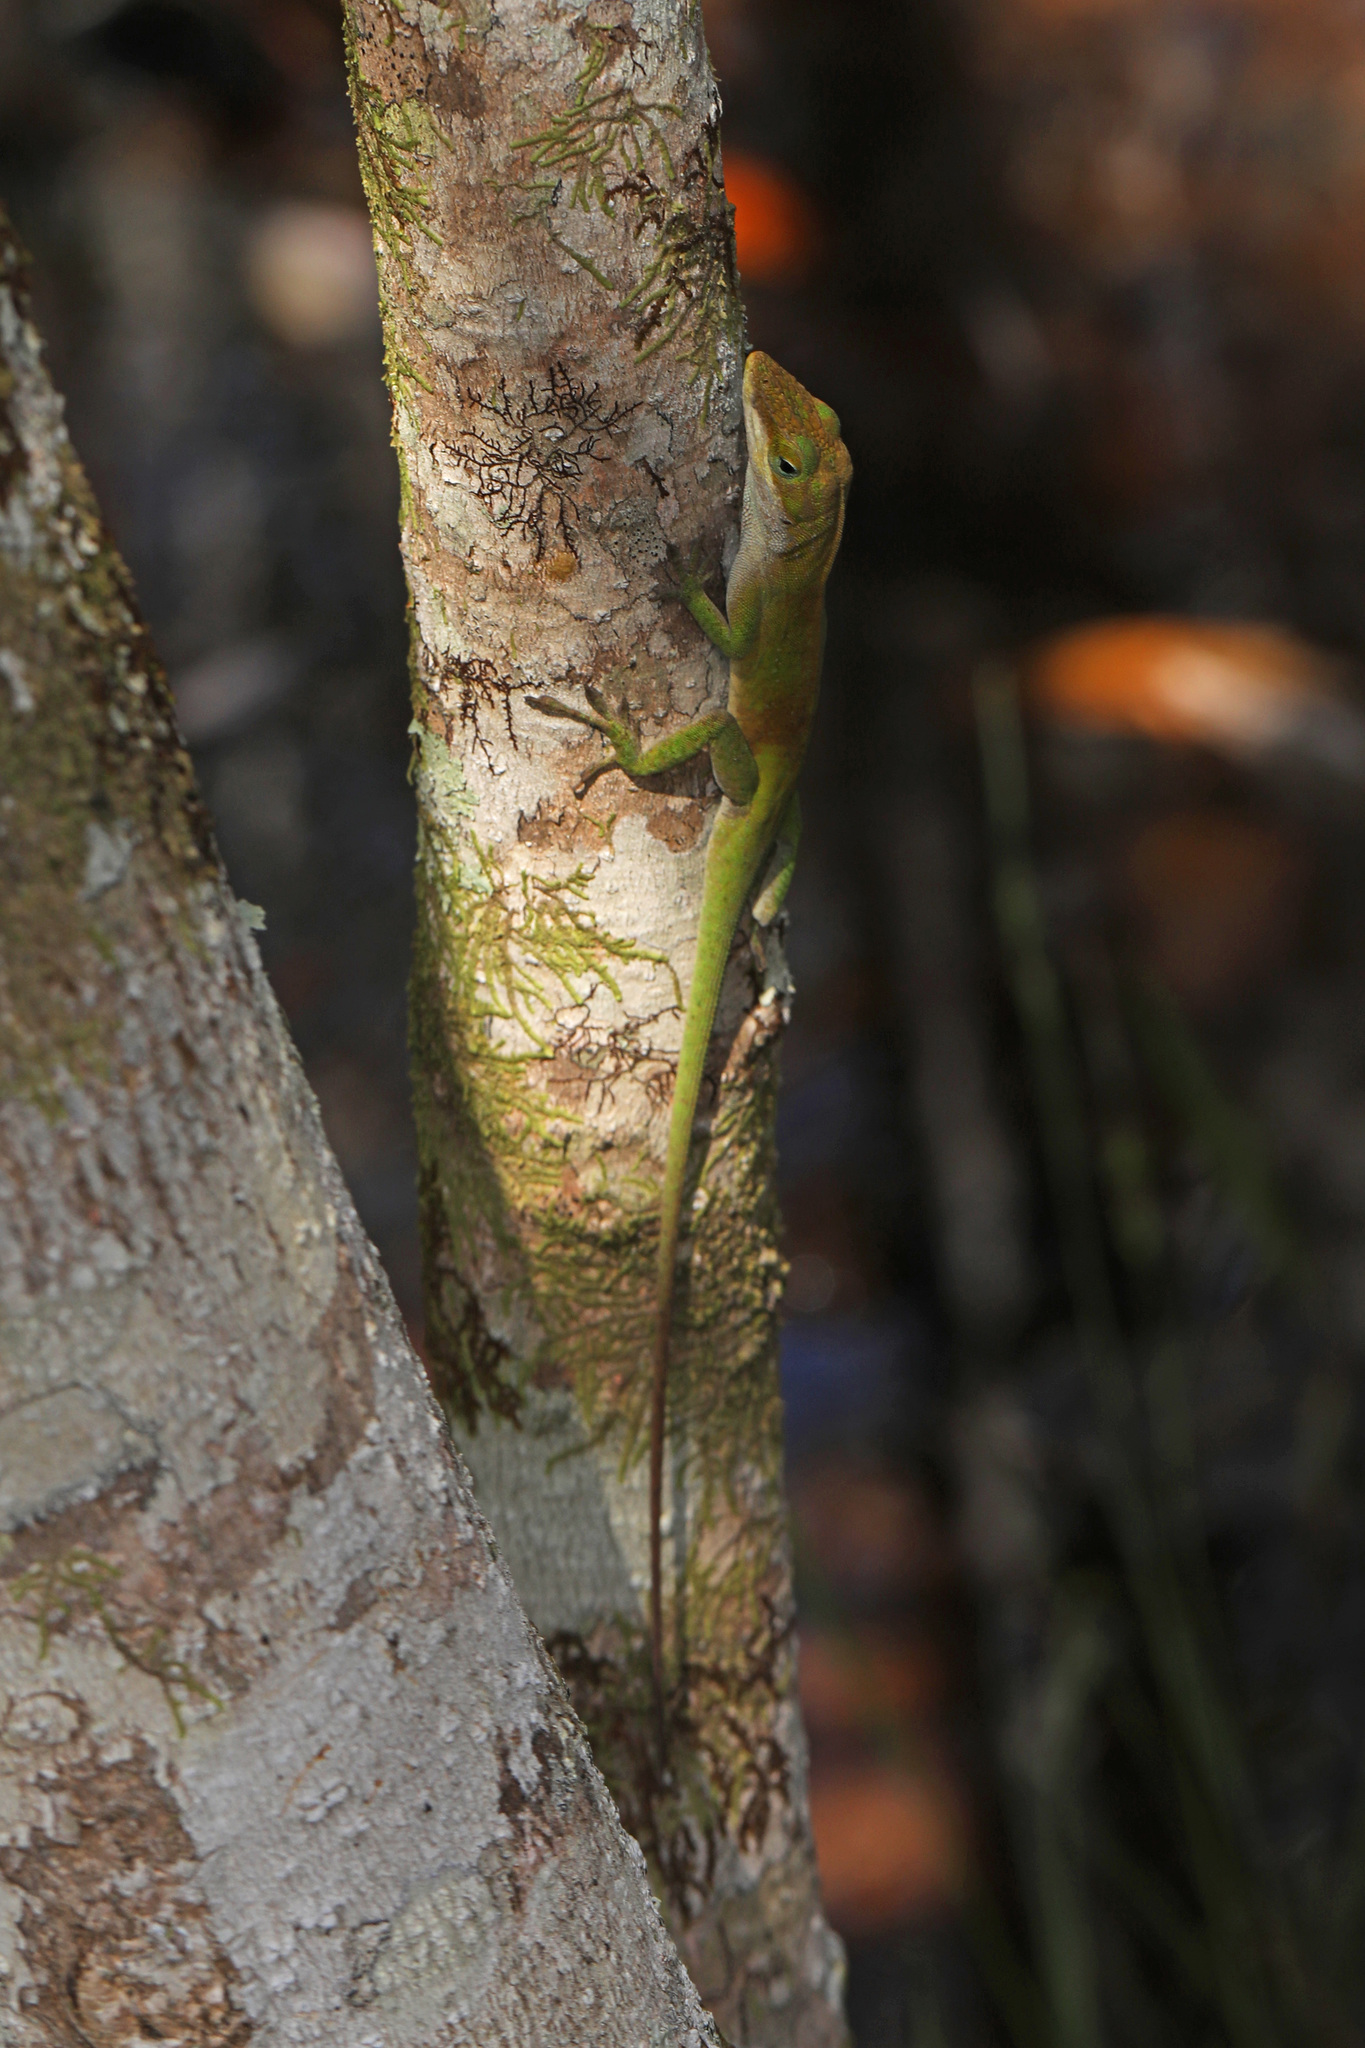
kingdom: Animalia
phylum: Chordata
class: Squamata
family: Dactyloidae
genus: Anolis
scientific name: Anolis carolinensis
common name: Green anole
